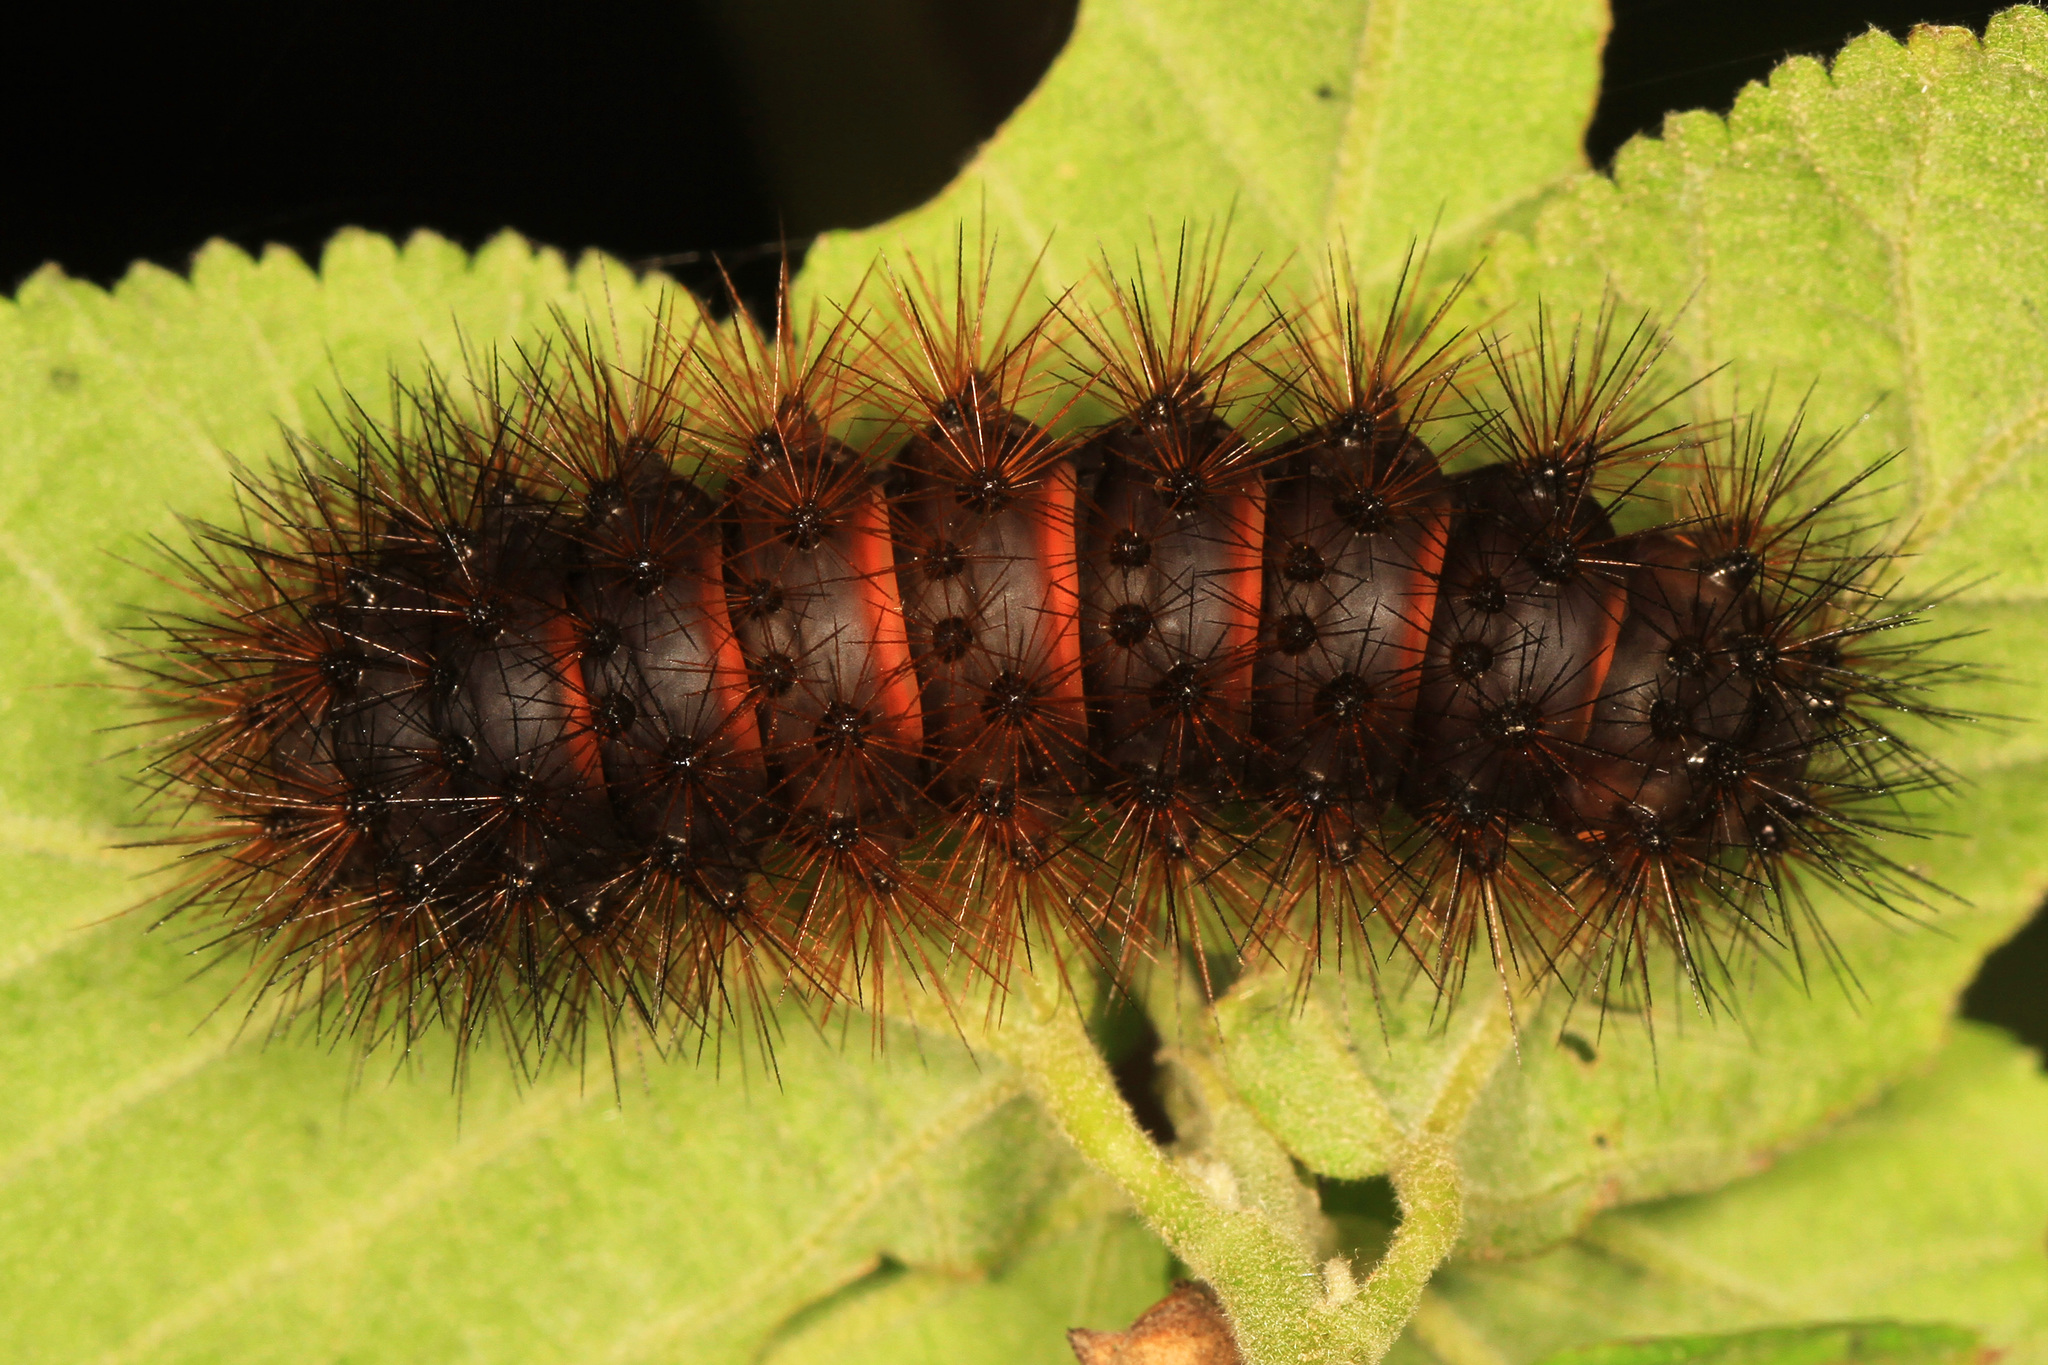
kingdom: Animalia
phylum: Arthropoda
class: Insecta
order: Lepidoptera
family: Erebidae
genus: Hypercompe
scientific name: Hypercompe scribonia
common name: Giant leopard moth
